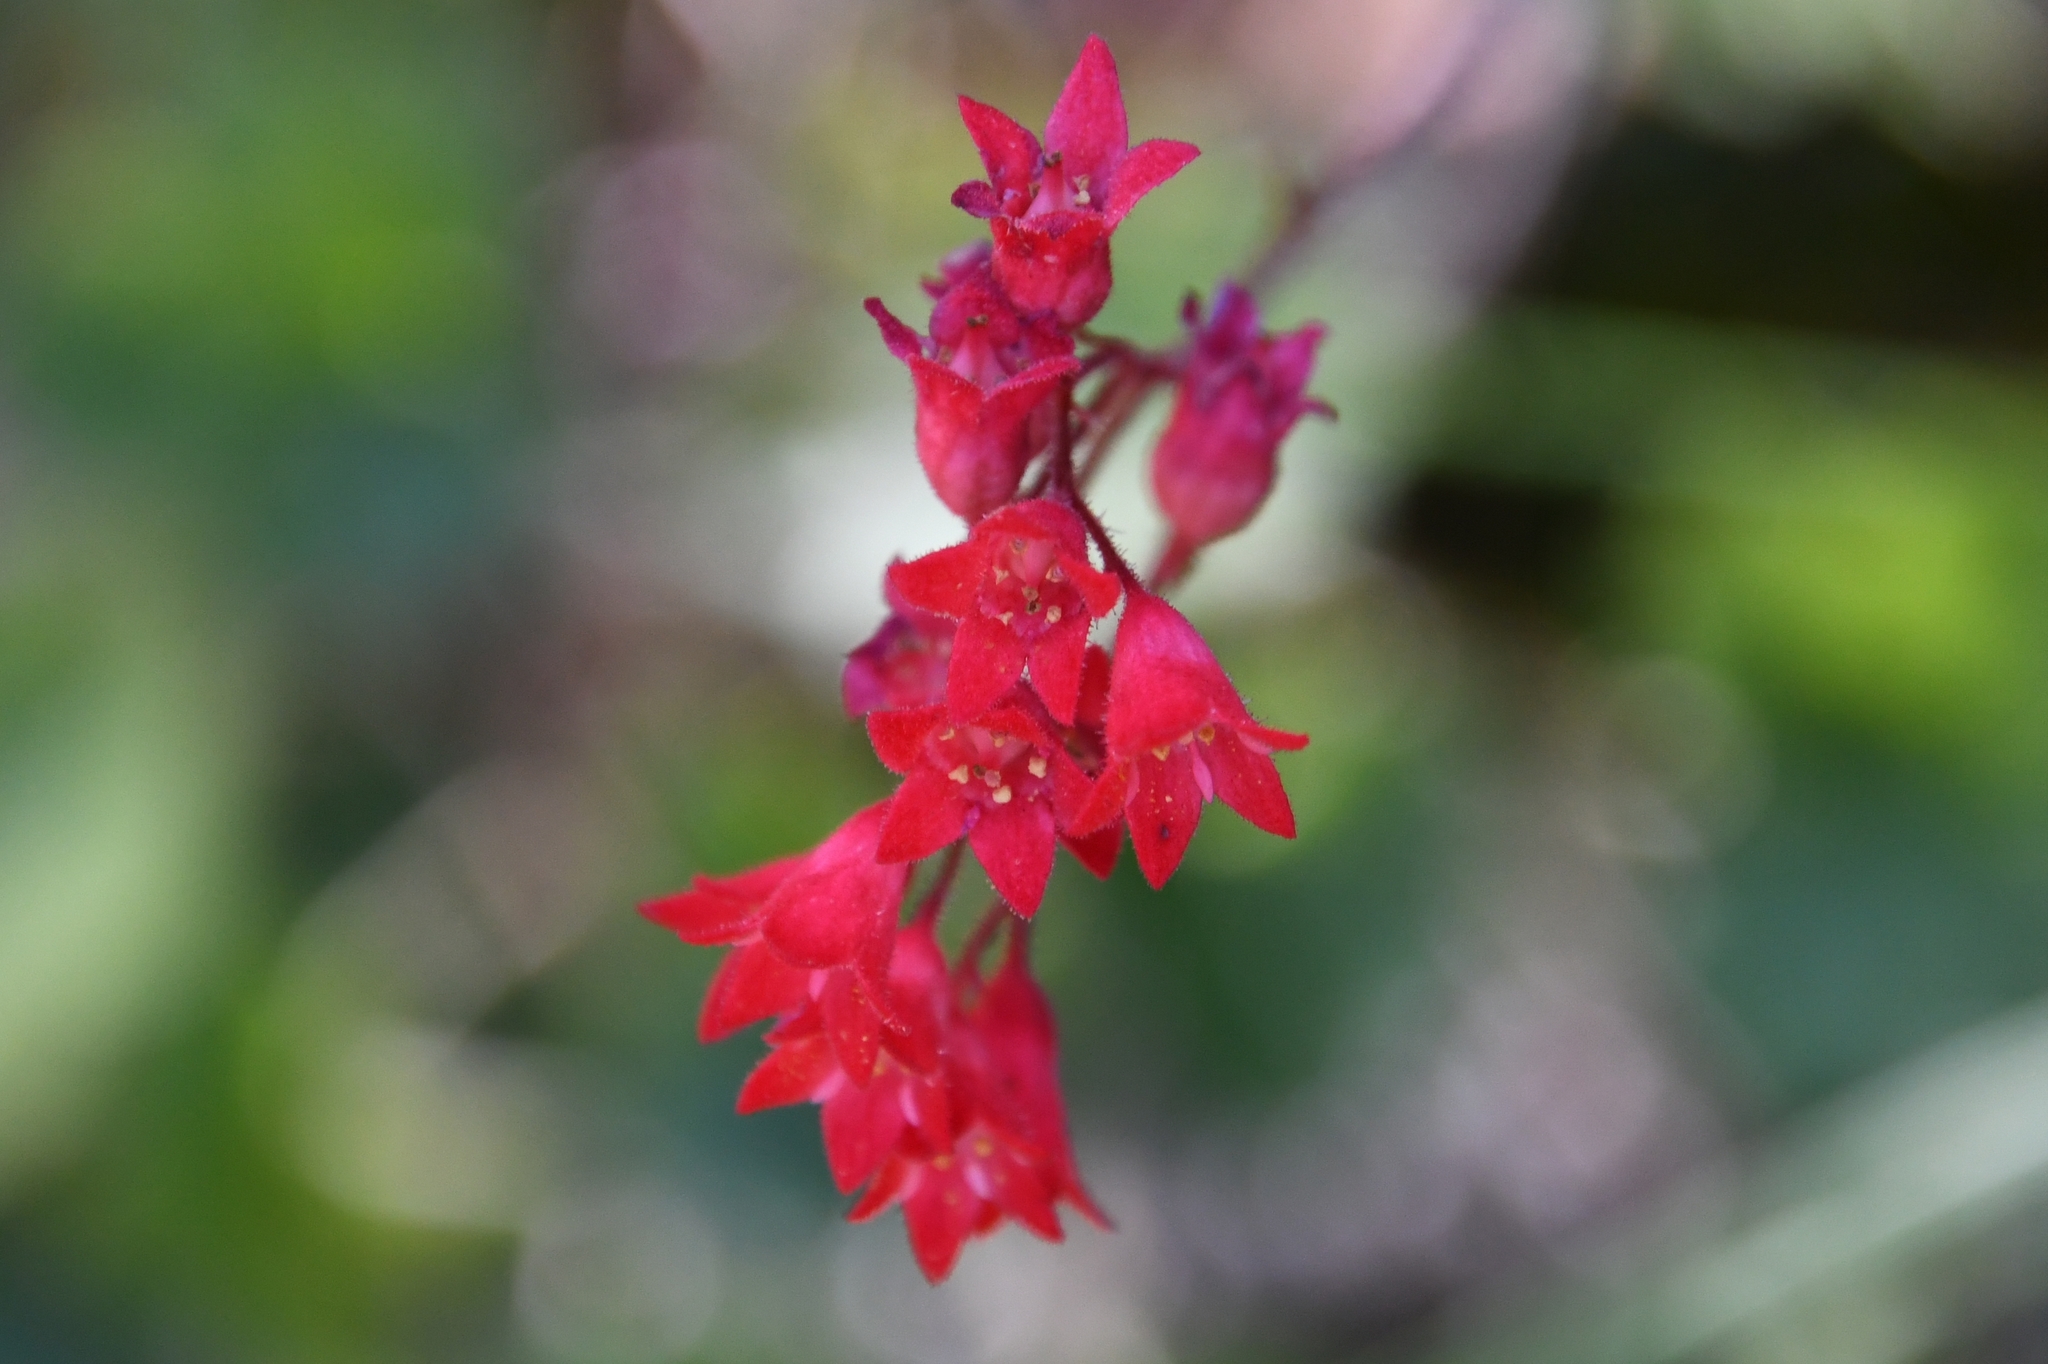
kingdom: Plantae
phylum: Tracheophyta
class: Magnoliopsida
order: Saxifragales
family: Saxifragaceae
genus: Heuchera
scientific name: Heuchera sanguinea
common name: Coralbells
